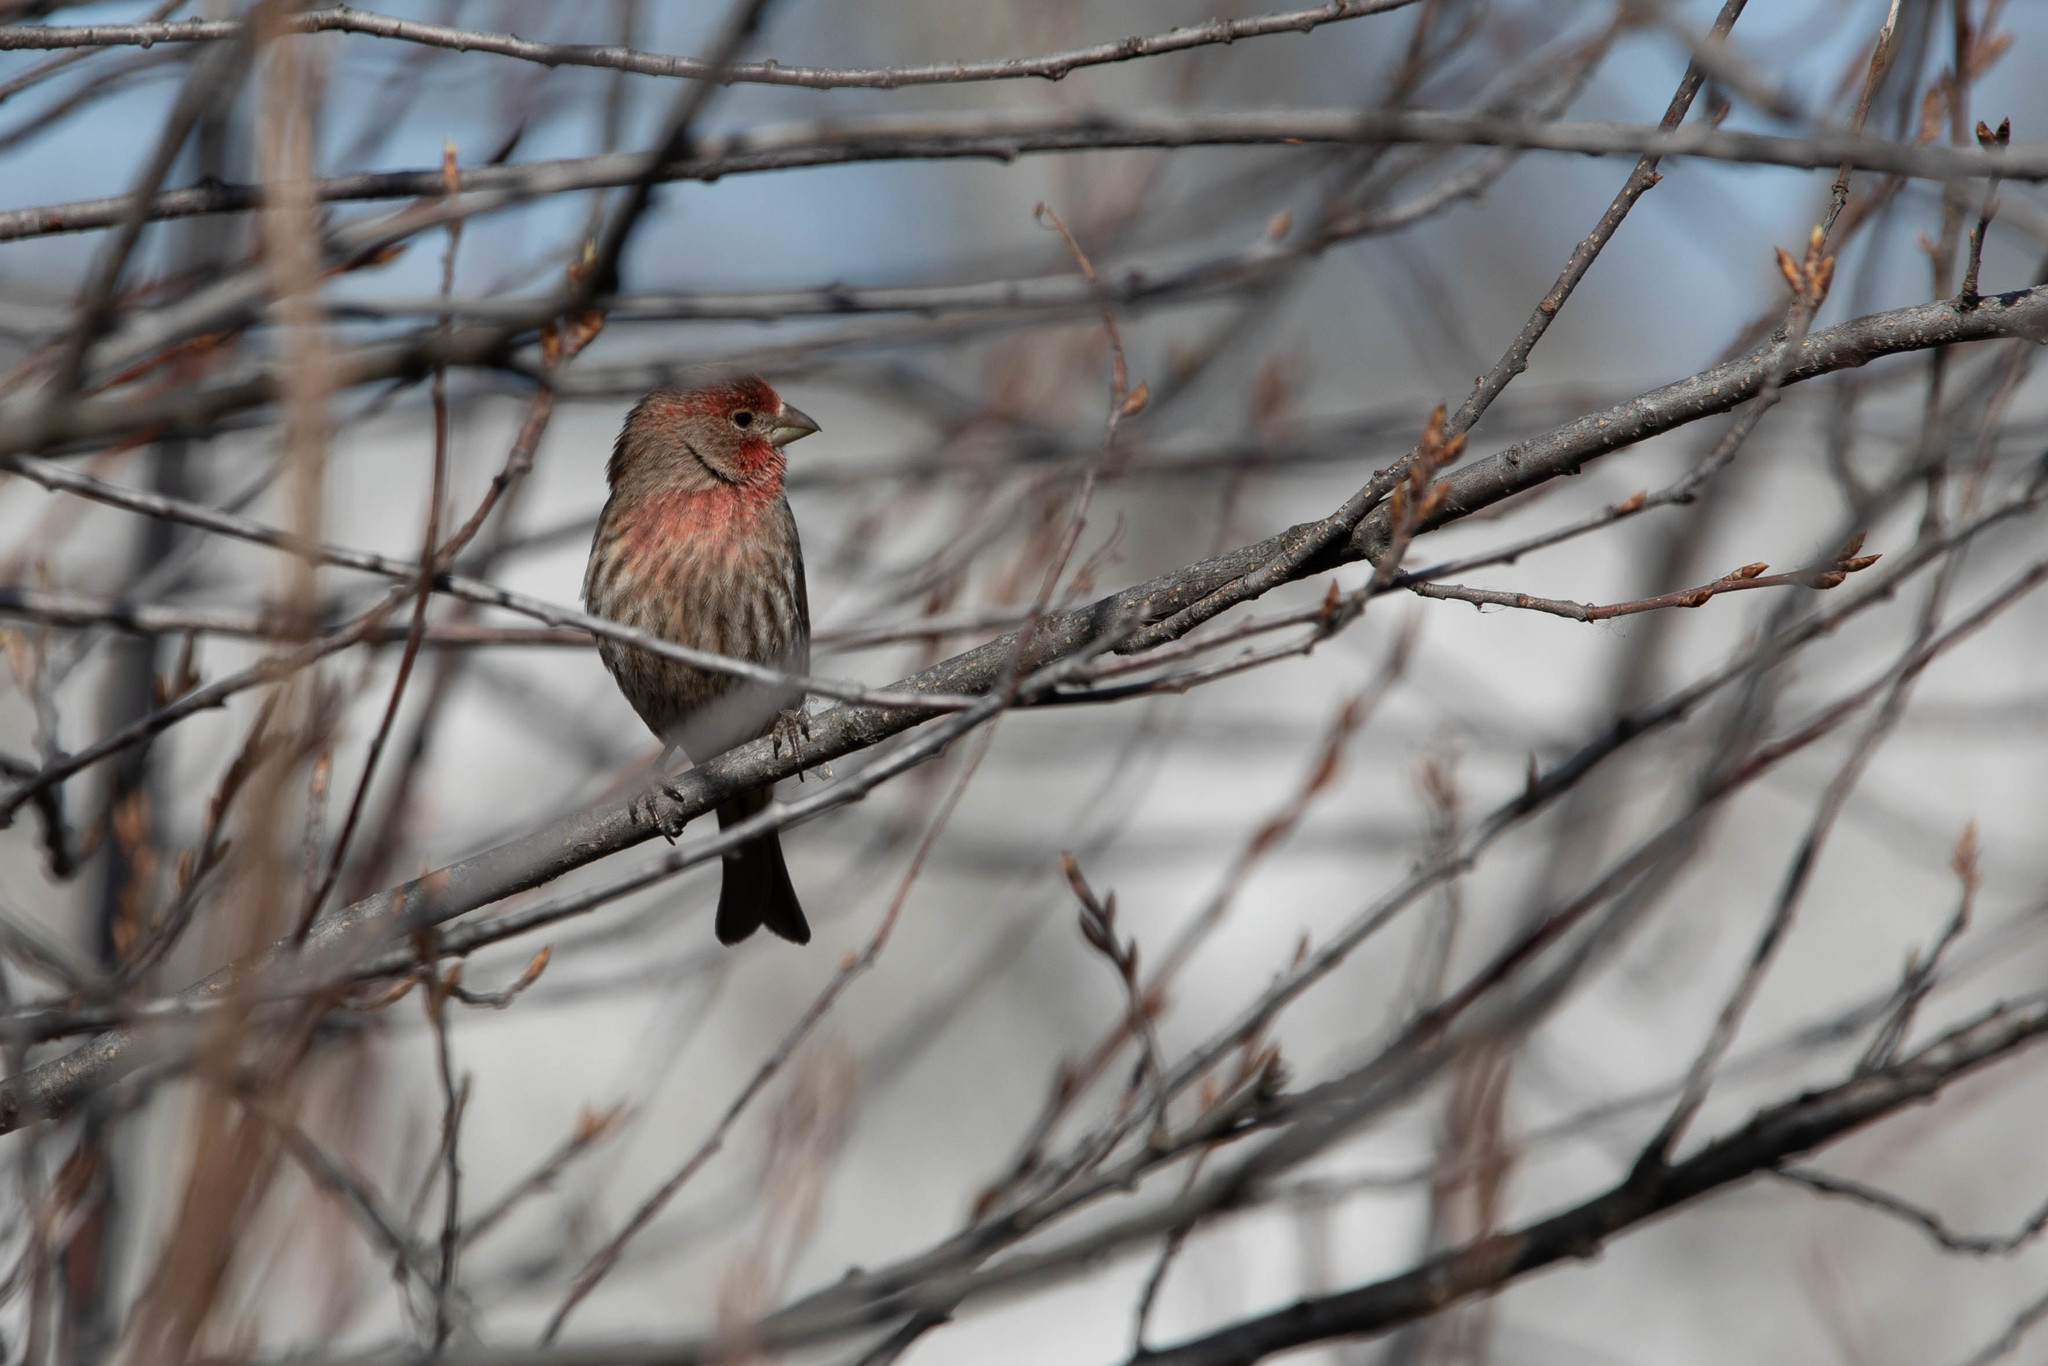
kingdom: Animalia
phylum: Chordata
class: Aves
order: Passeriformes
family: Fringillidae
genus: Haemorhous
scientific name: Haemorhous mexicanus
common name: House finch
